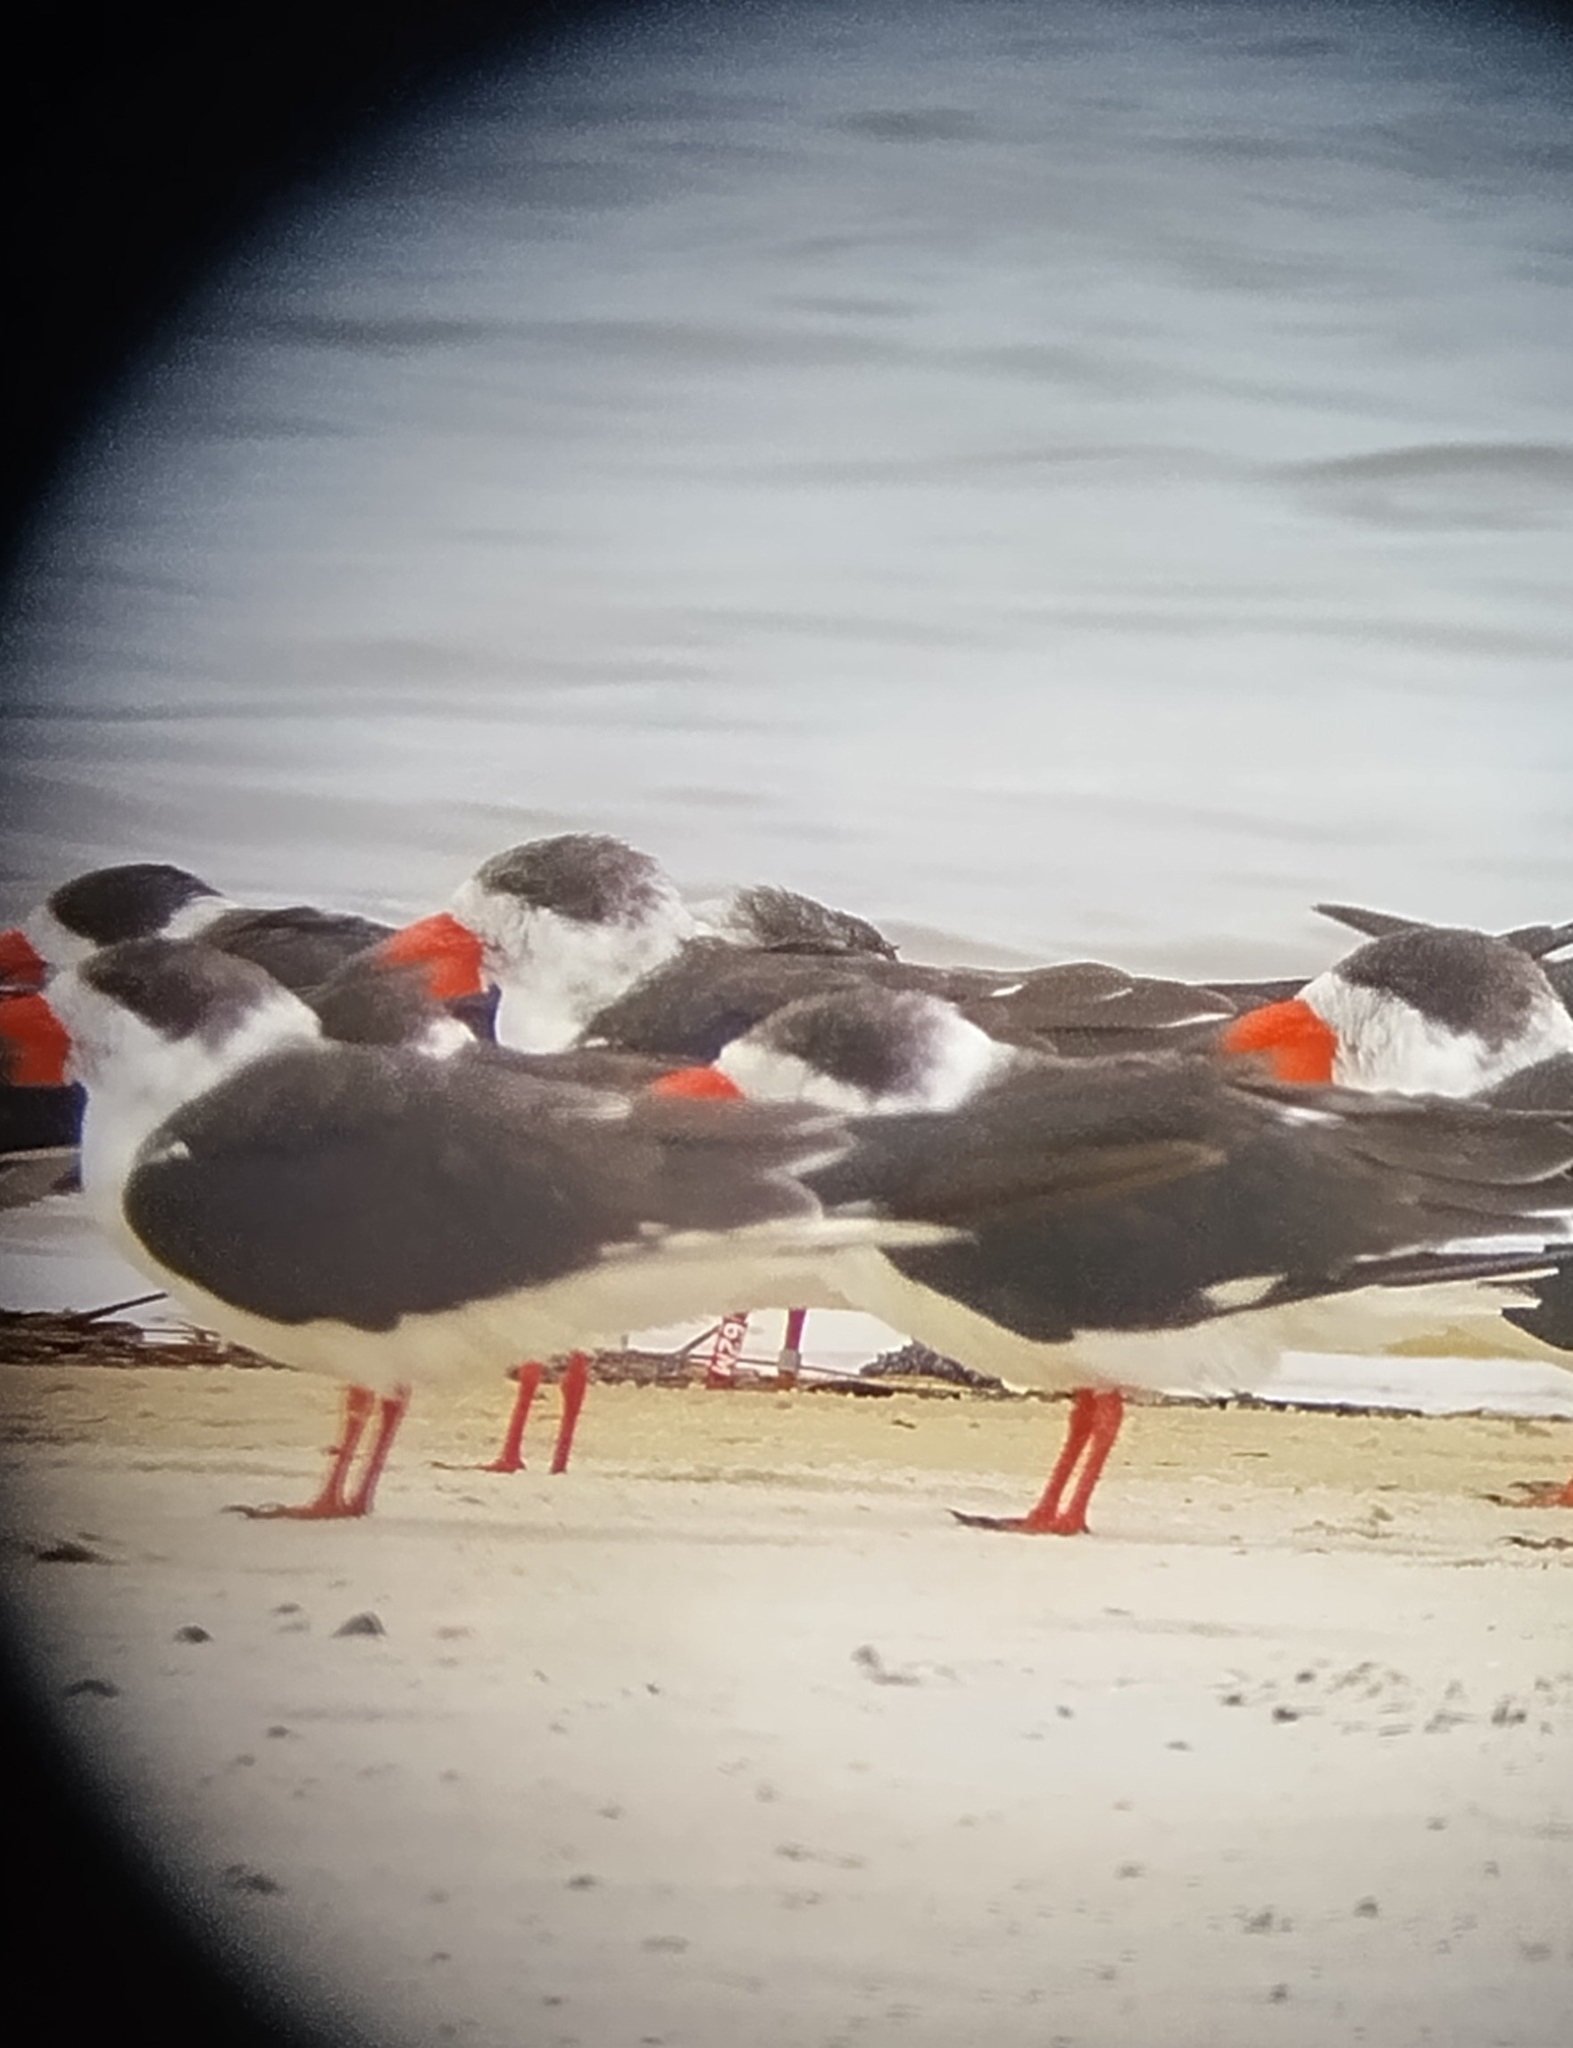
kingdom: Animalia
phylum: Chordata
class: Aves
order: Charadriiformes
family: Laridae
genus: Rynchops
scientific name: Rynchops niger
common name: Black skimmer
